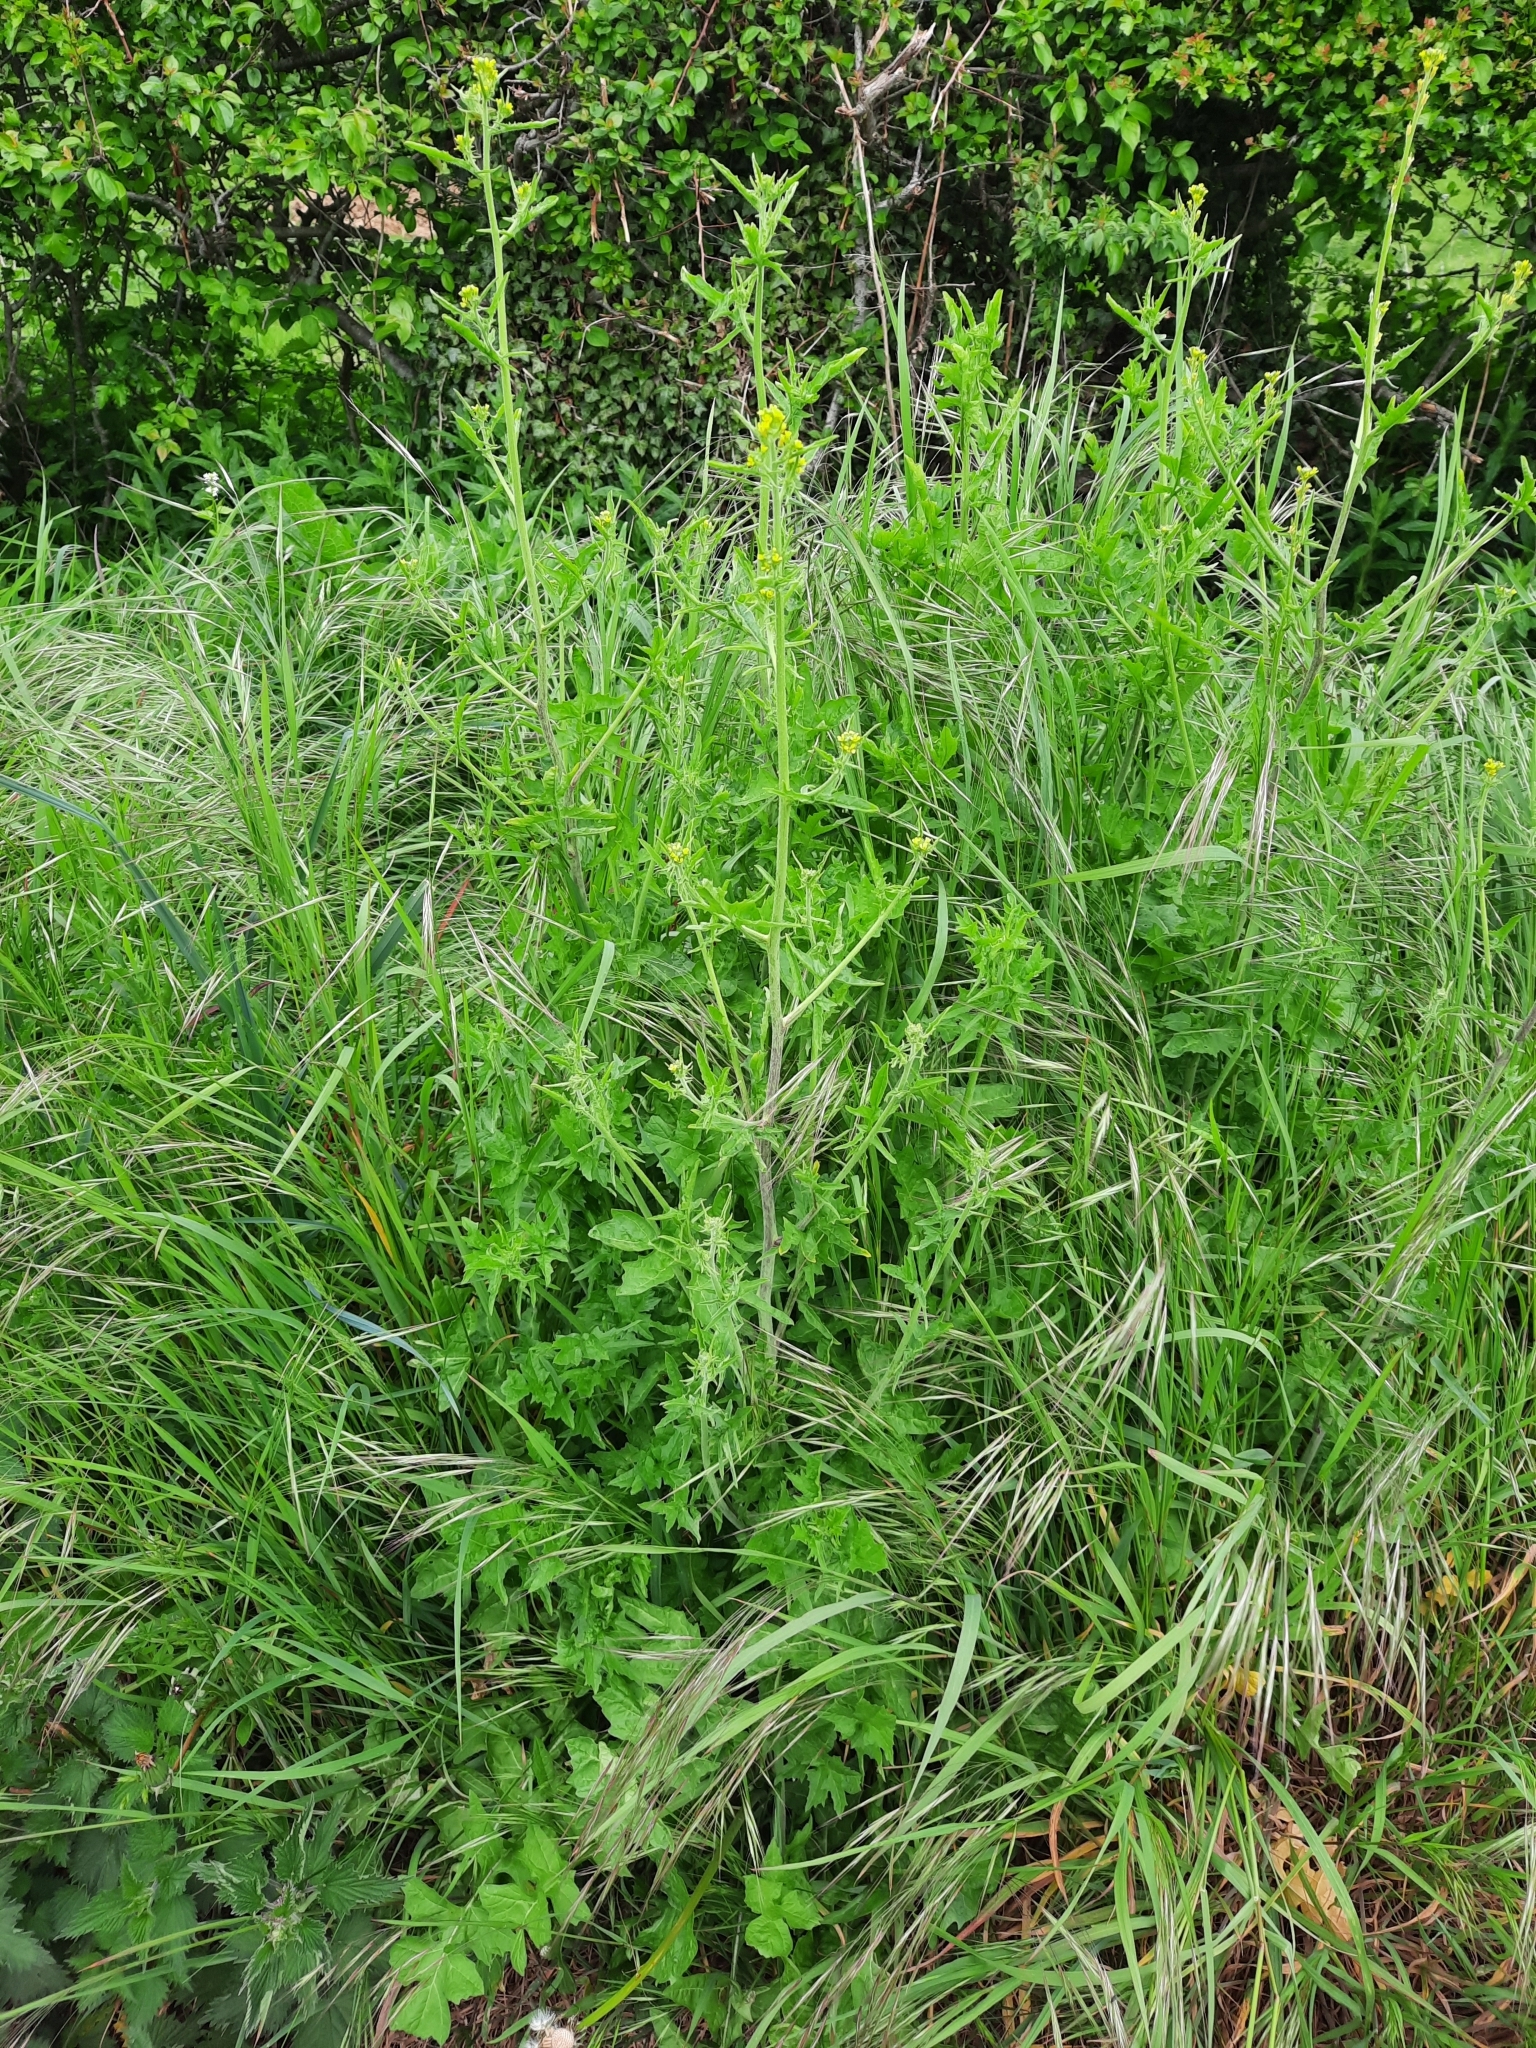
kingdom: Plantae
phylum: Tracheophyta
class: Magnoliopsida
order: Brassicales
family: Brassicaceae
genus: Sisymbrium
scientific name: Sisymbrium officinale
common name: Hedge mustard
